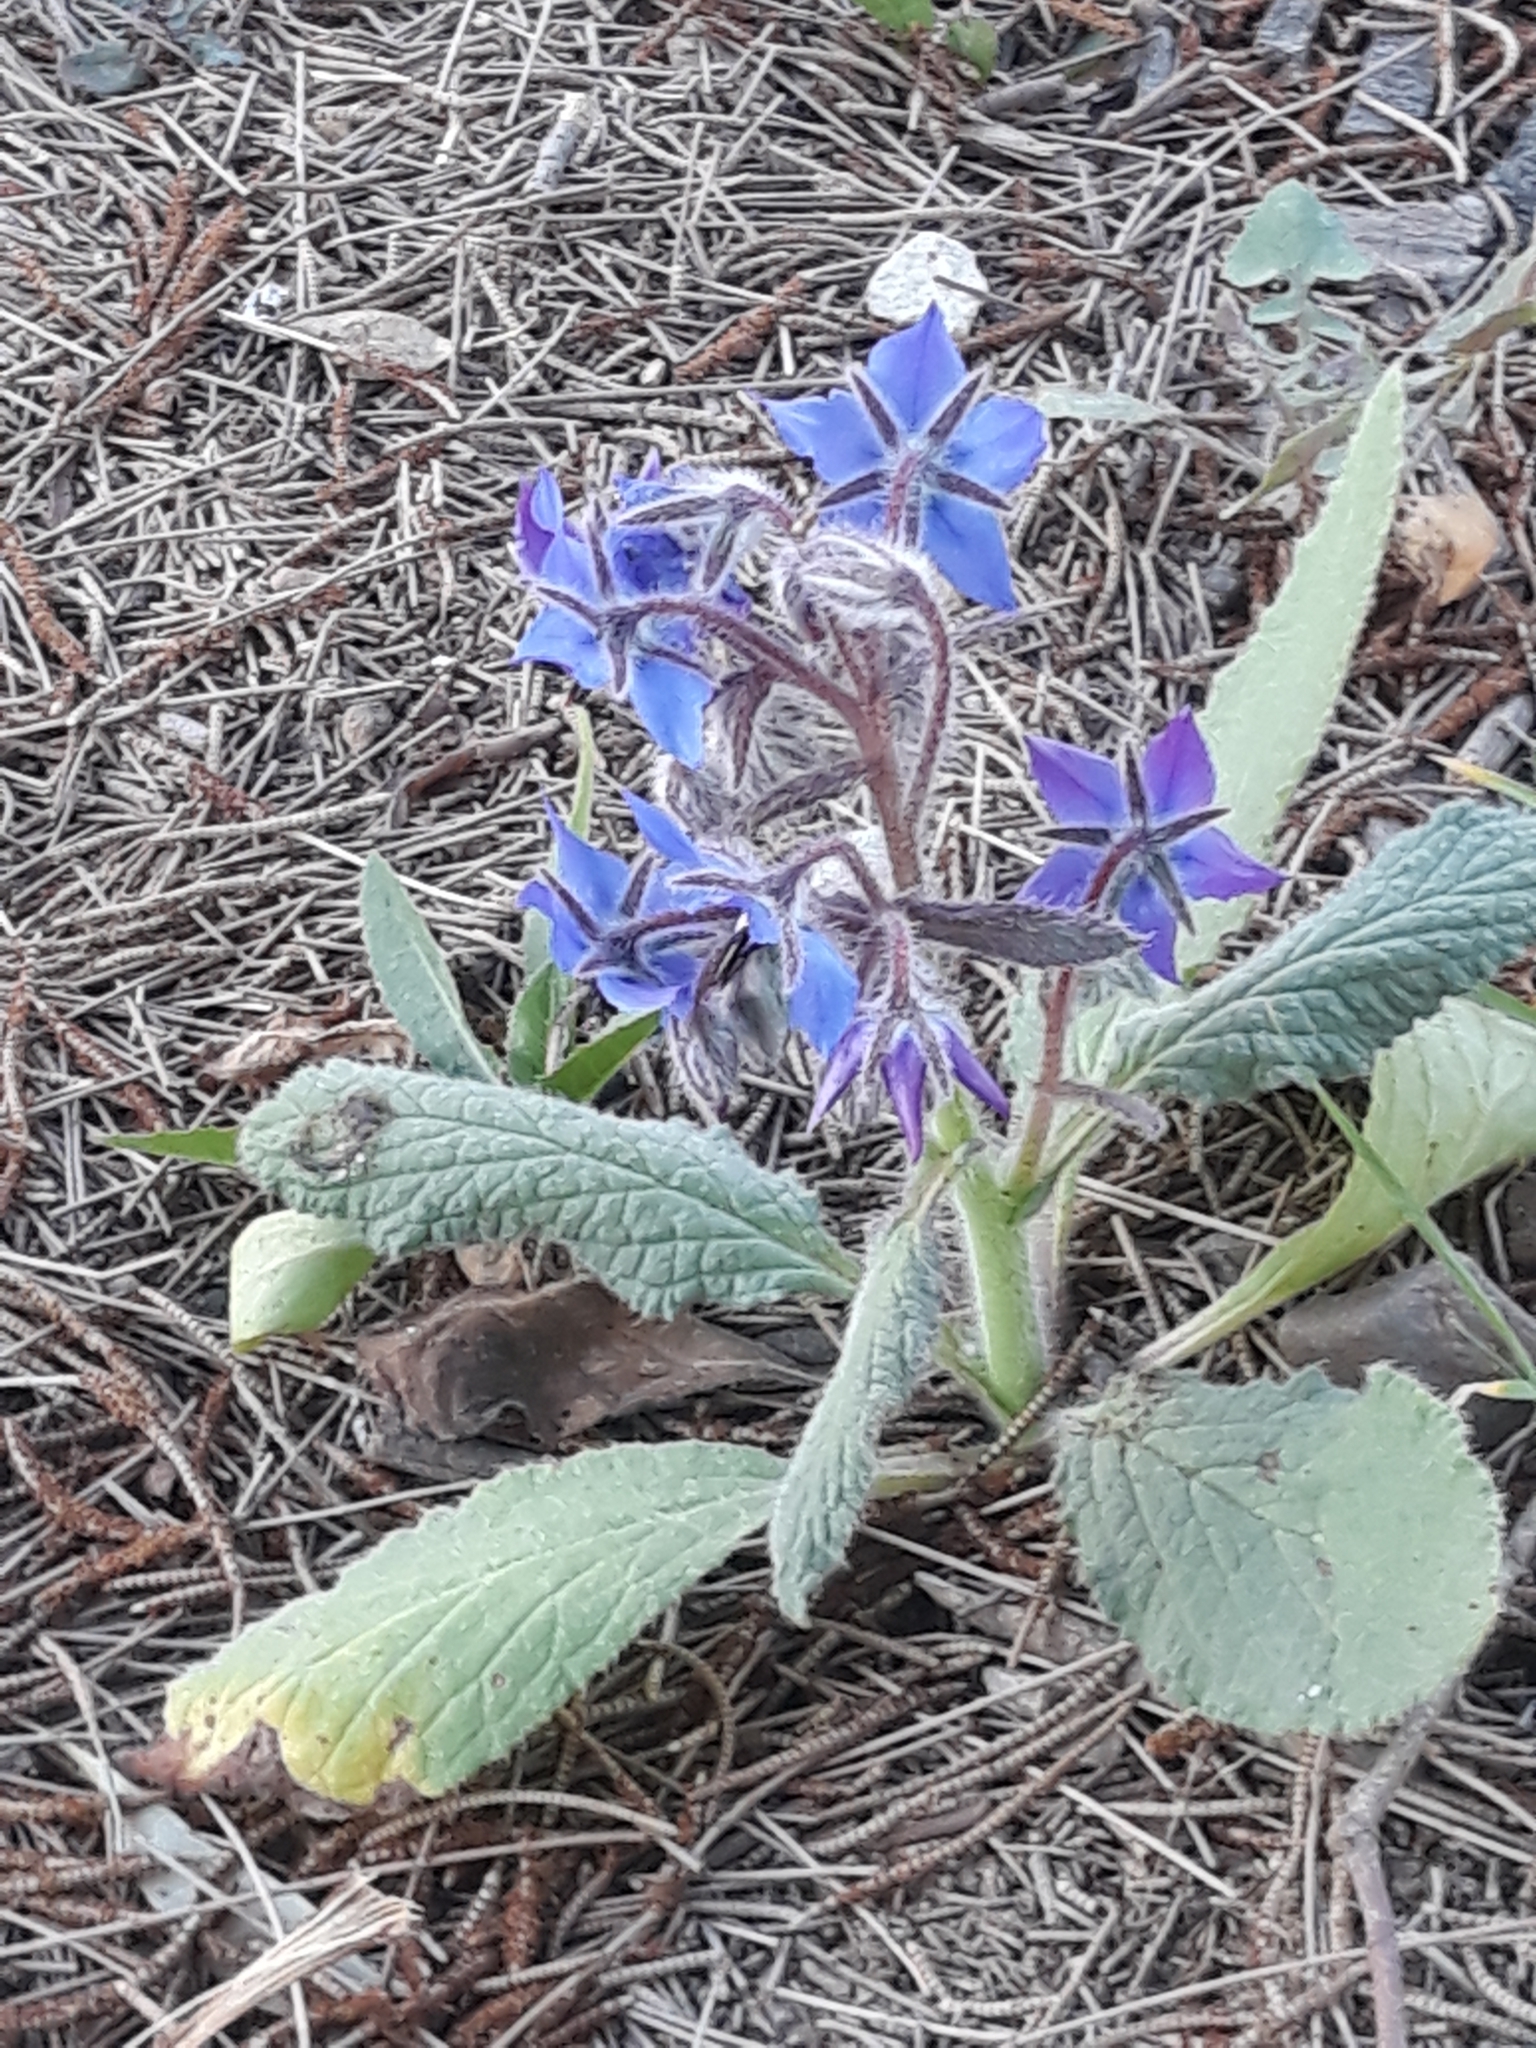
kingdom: Plantae
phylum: Tracheophyta
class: Magnoliopsida
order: Boraginales
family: Boraginaceae
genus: Borago
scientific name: Borago officinalis
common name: Borage
